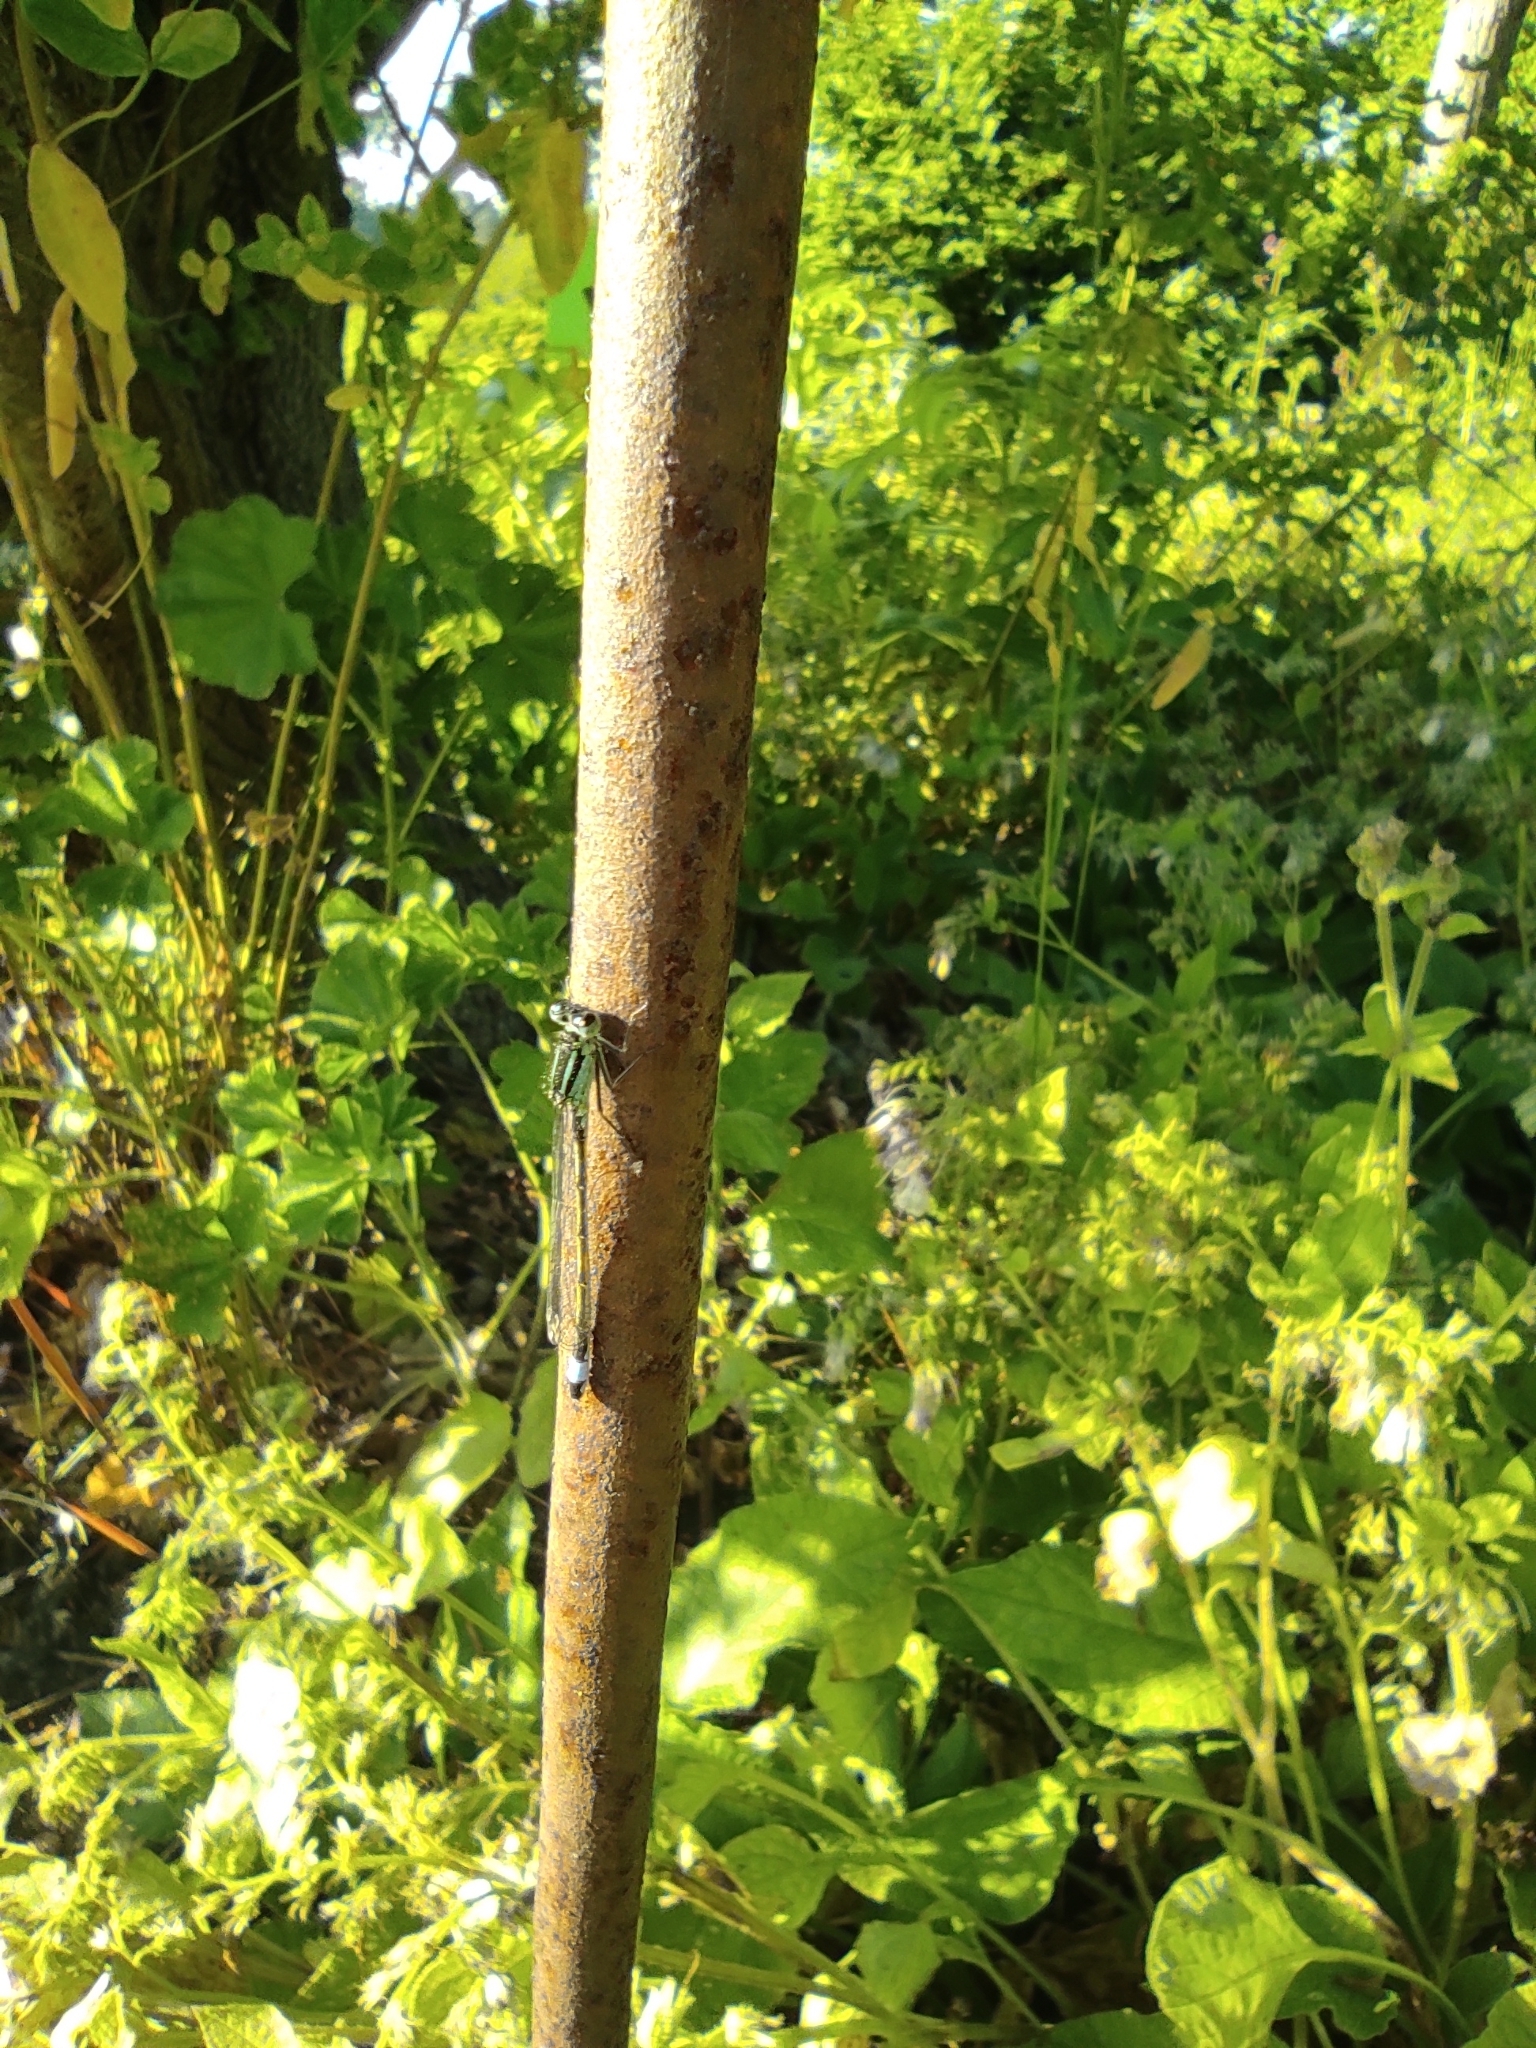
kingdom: Animalia
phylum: Arthropoda
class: Insecta
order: Odonata
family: Coenagrionidae
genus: Ischnura
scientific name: Ischnura elegans
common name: Blue-tailed damselfly
